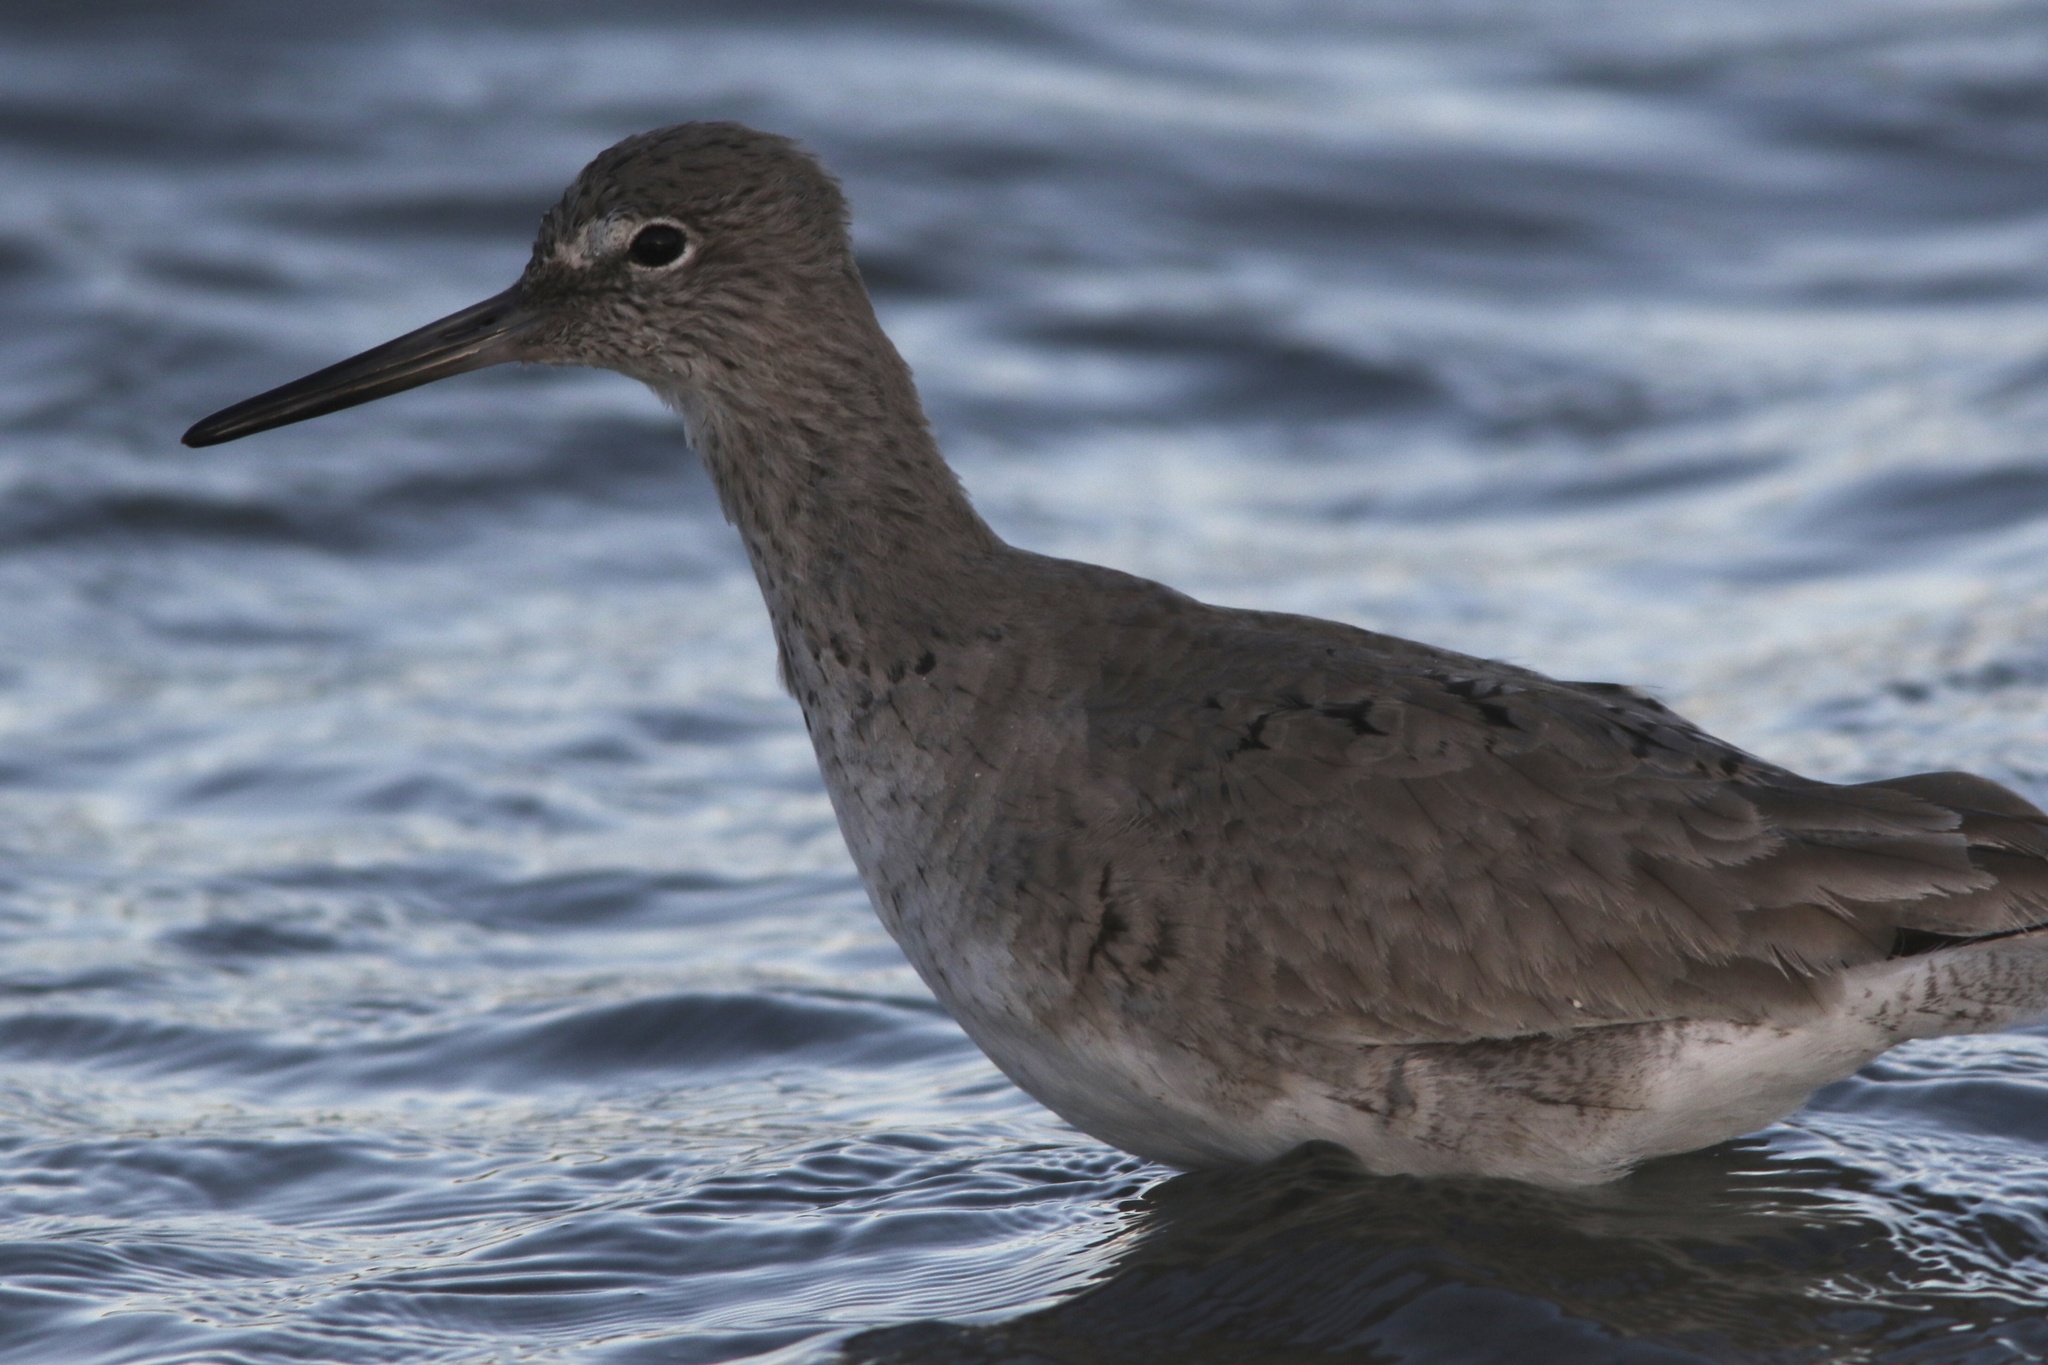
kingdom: Animalia
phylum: Chordata
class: Aves
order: Charadriiformes
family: Scolopacidae
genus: Tringa
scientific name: Tringa semipalmata
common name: Willet
